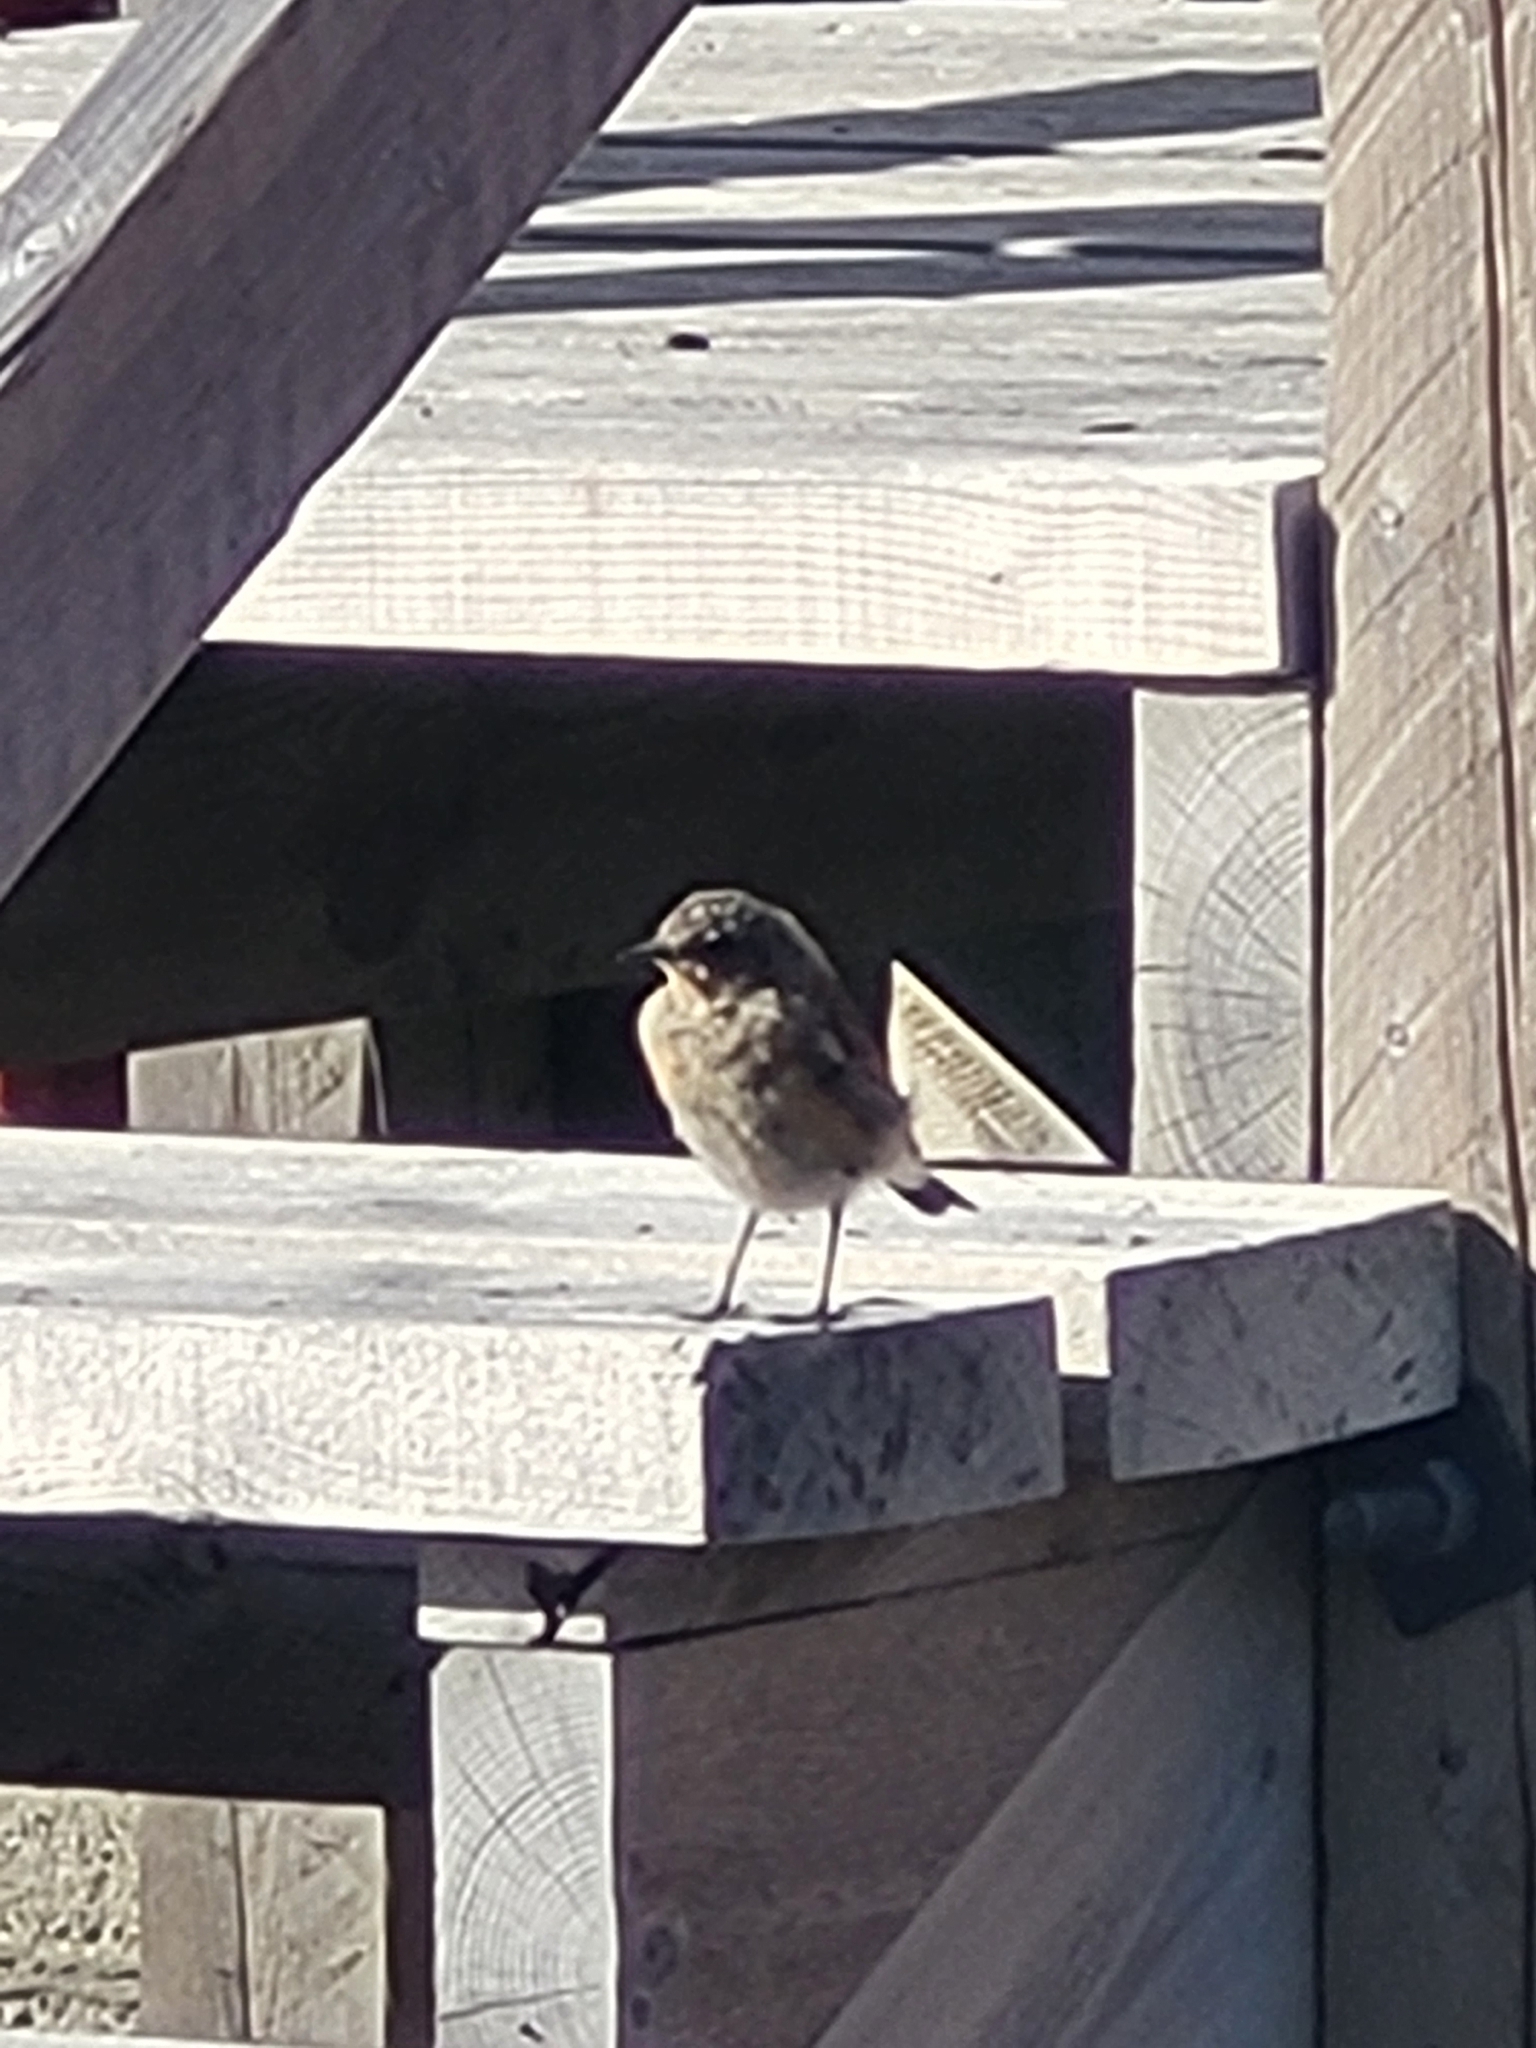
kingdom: Animalia
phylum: Chordata
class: Aves
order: Passeriformes
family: Muscicapidae
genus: Oenanthe
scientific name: Oenanthe oenanthe
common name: Northern wheatear
